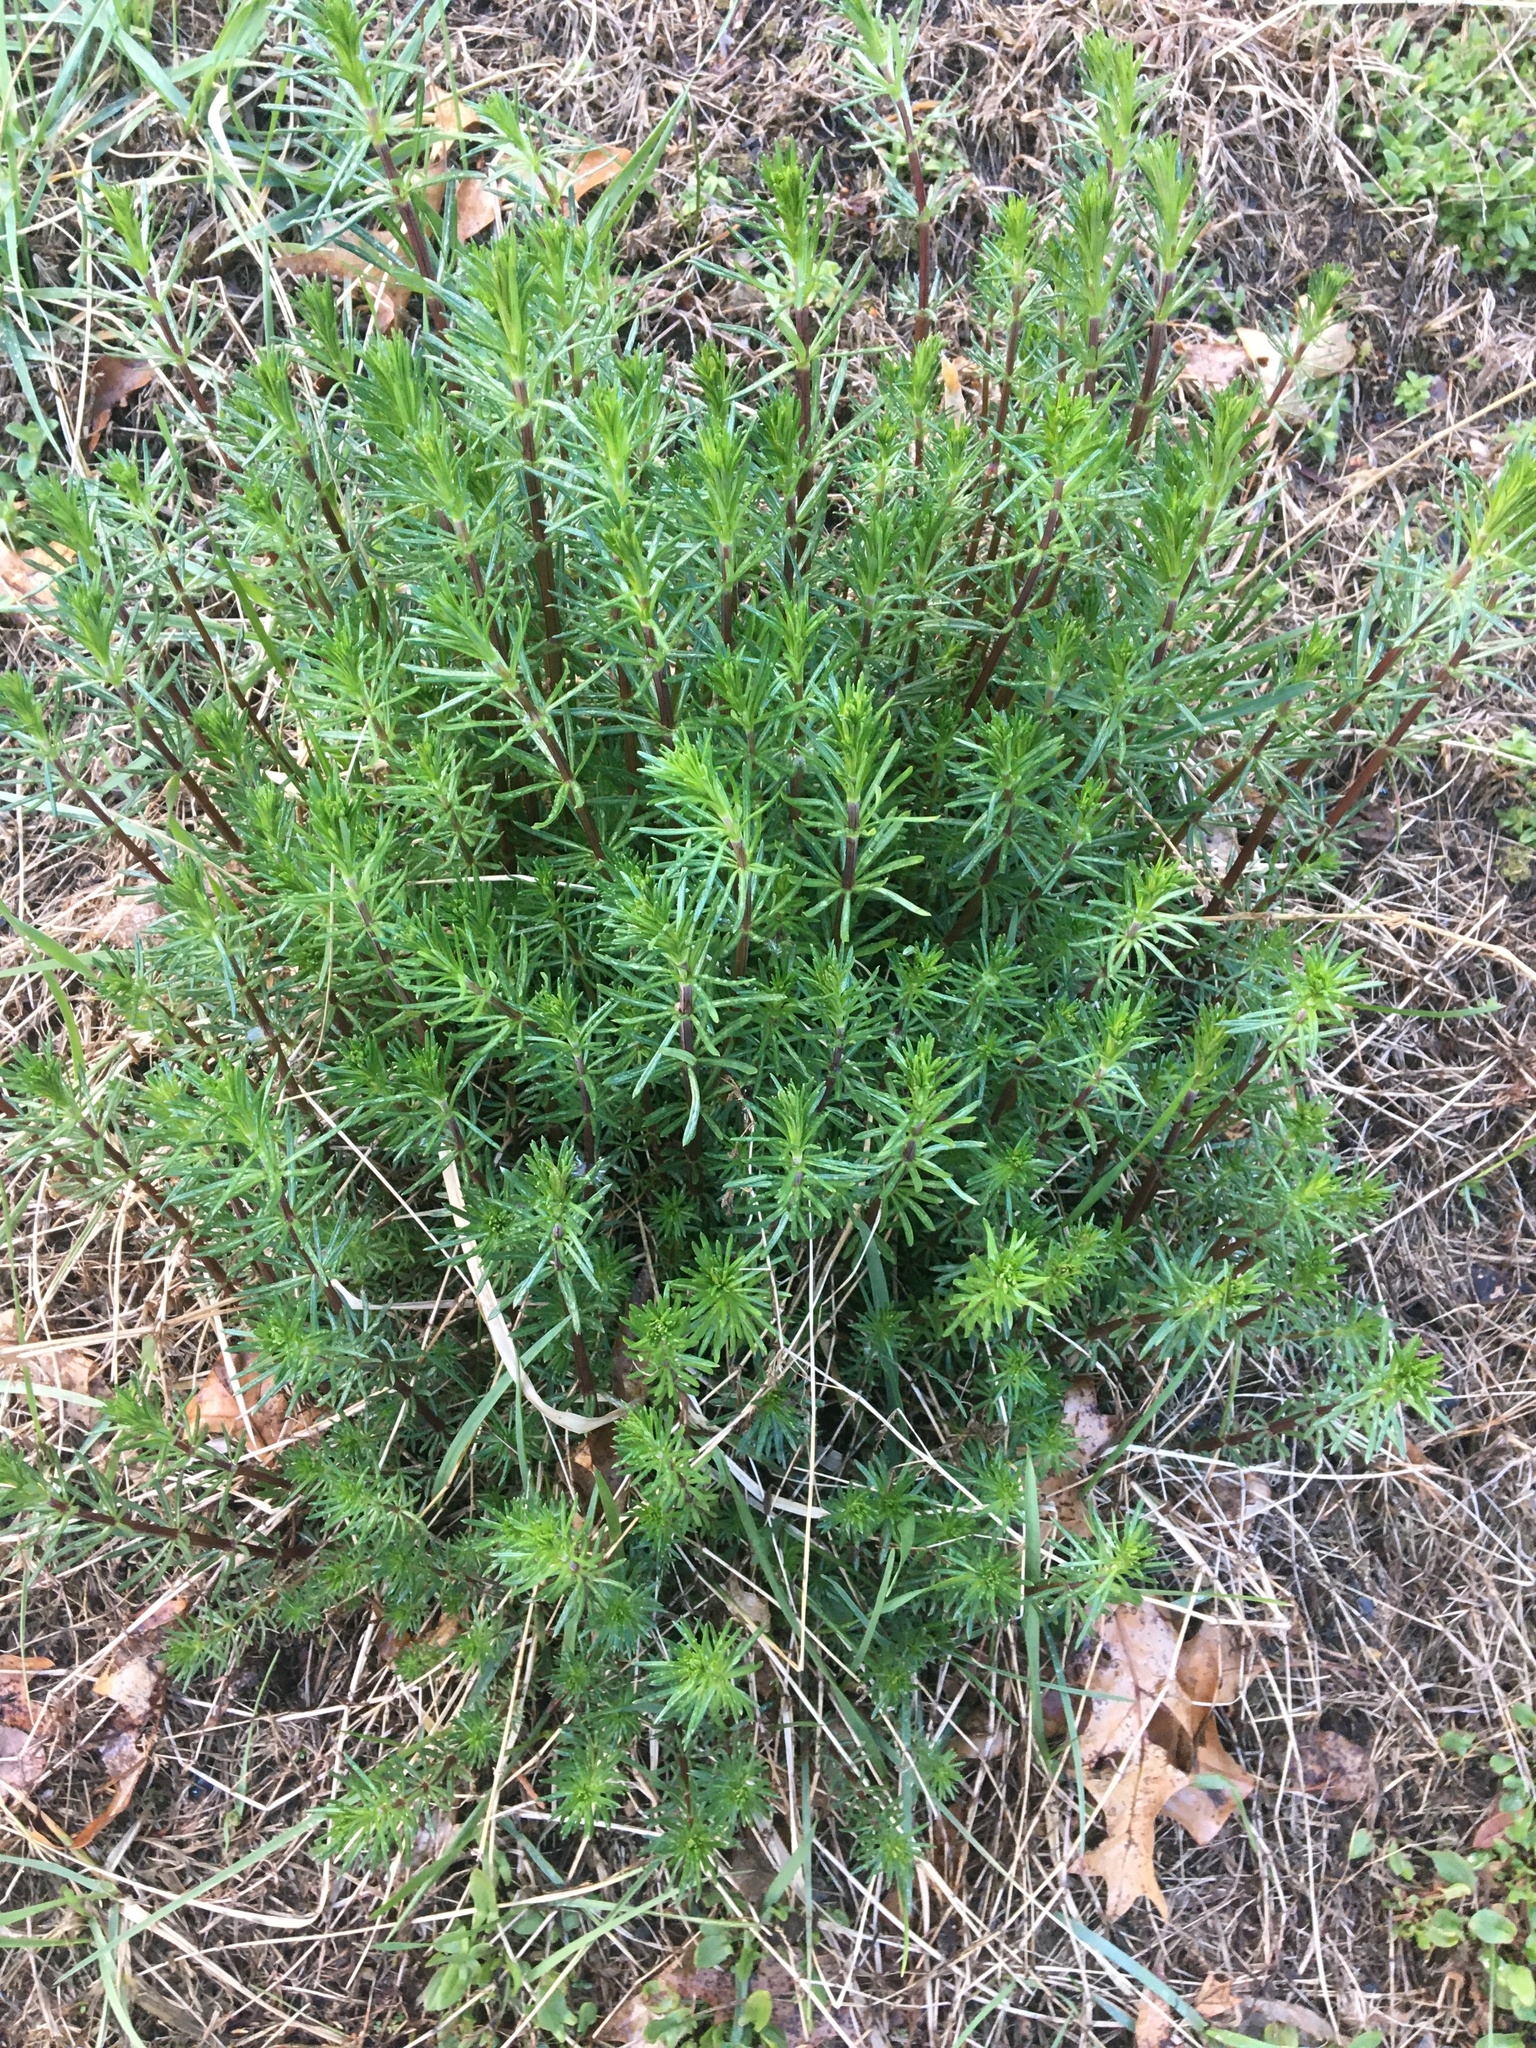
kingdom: Plantae
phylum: Tracheophyta
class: Magnoliopsida
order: Gentianales
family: Rubiaceae
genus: Galium
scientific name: Galium mollugo
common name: Hedge bedstraw
